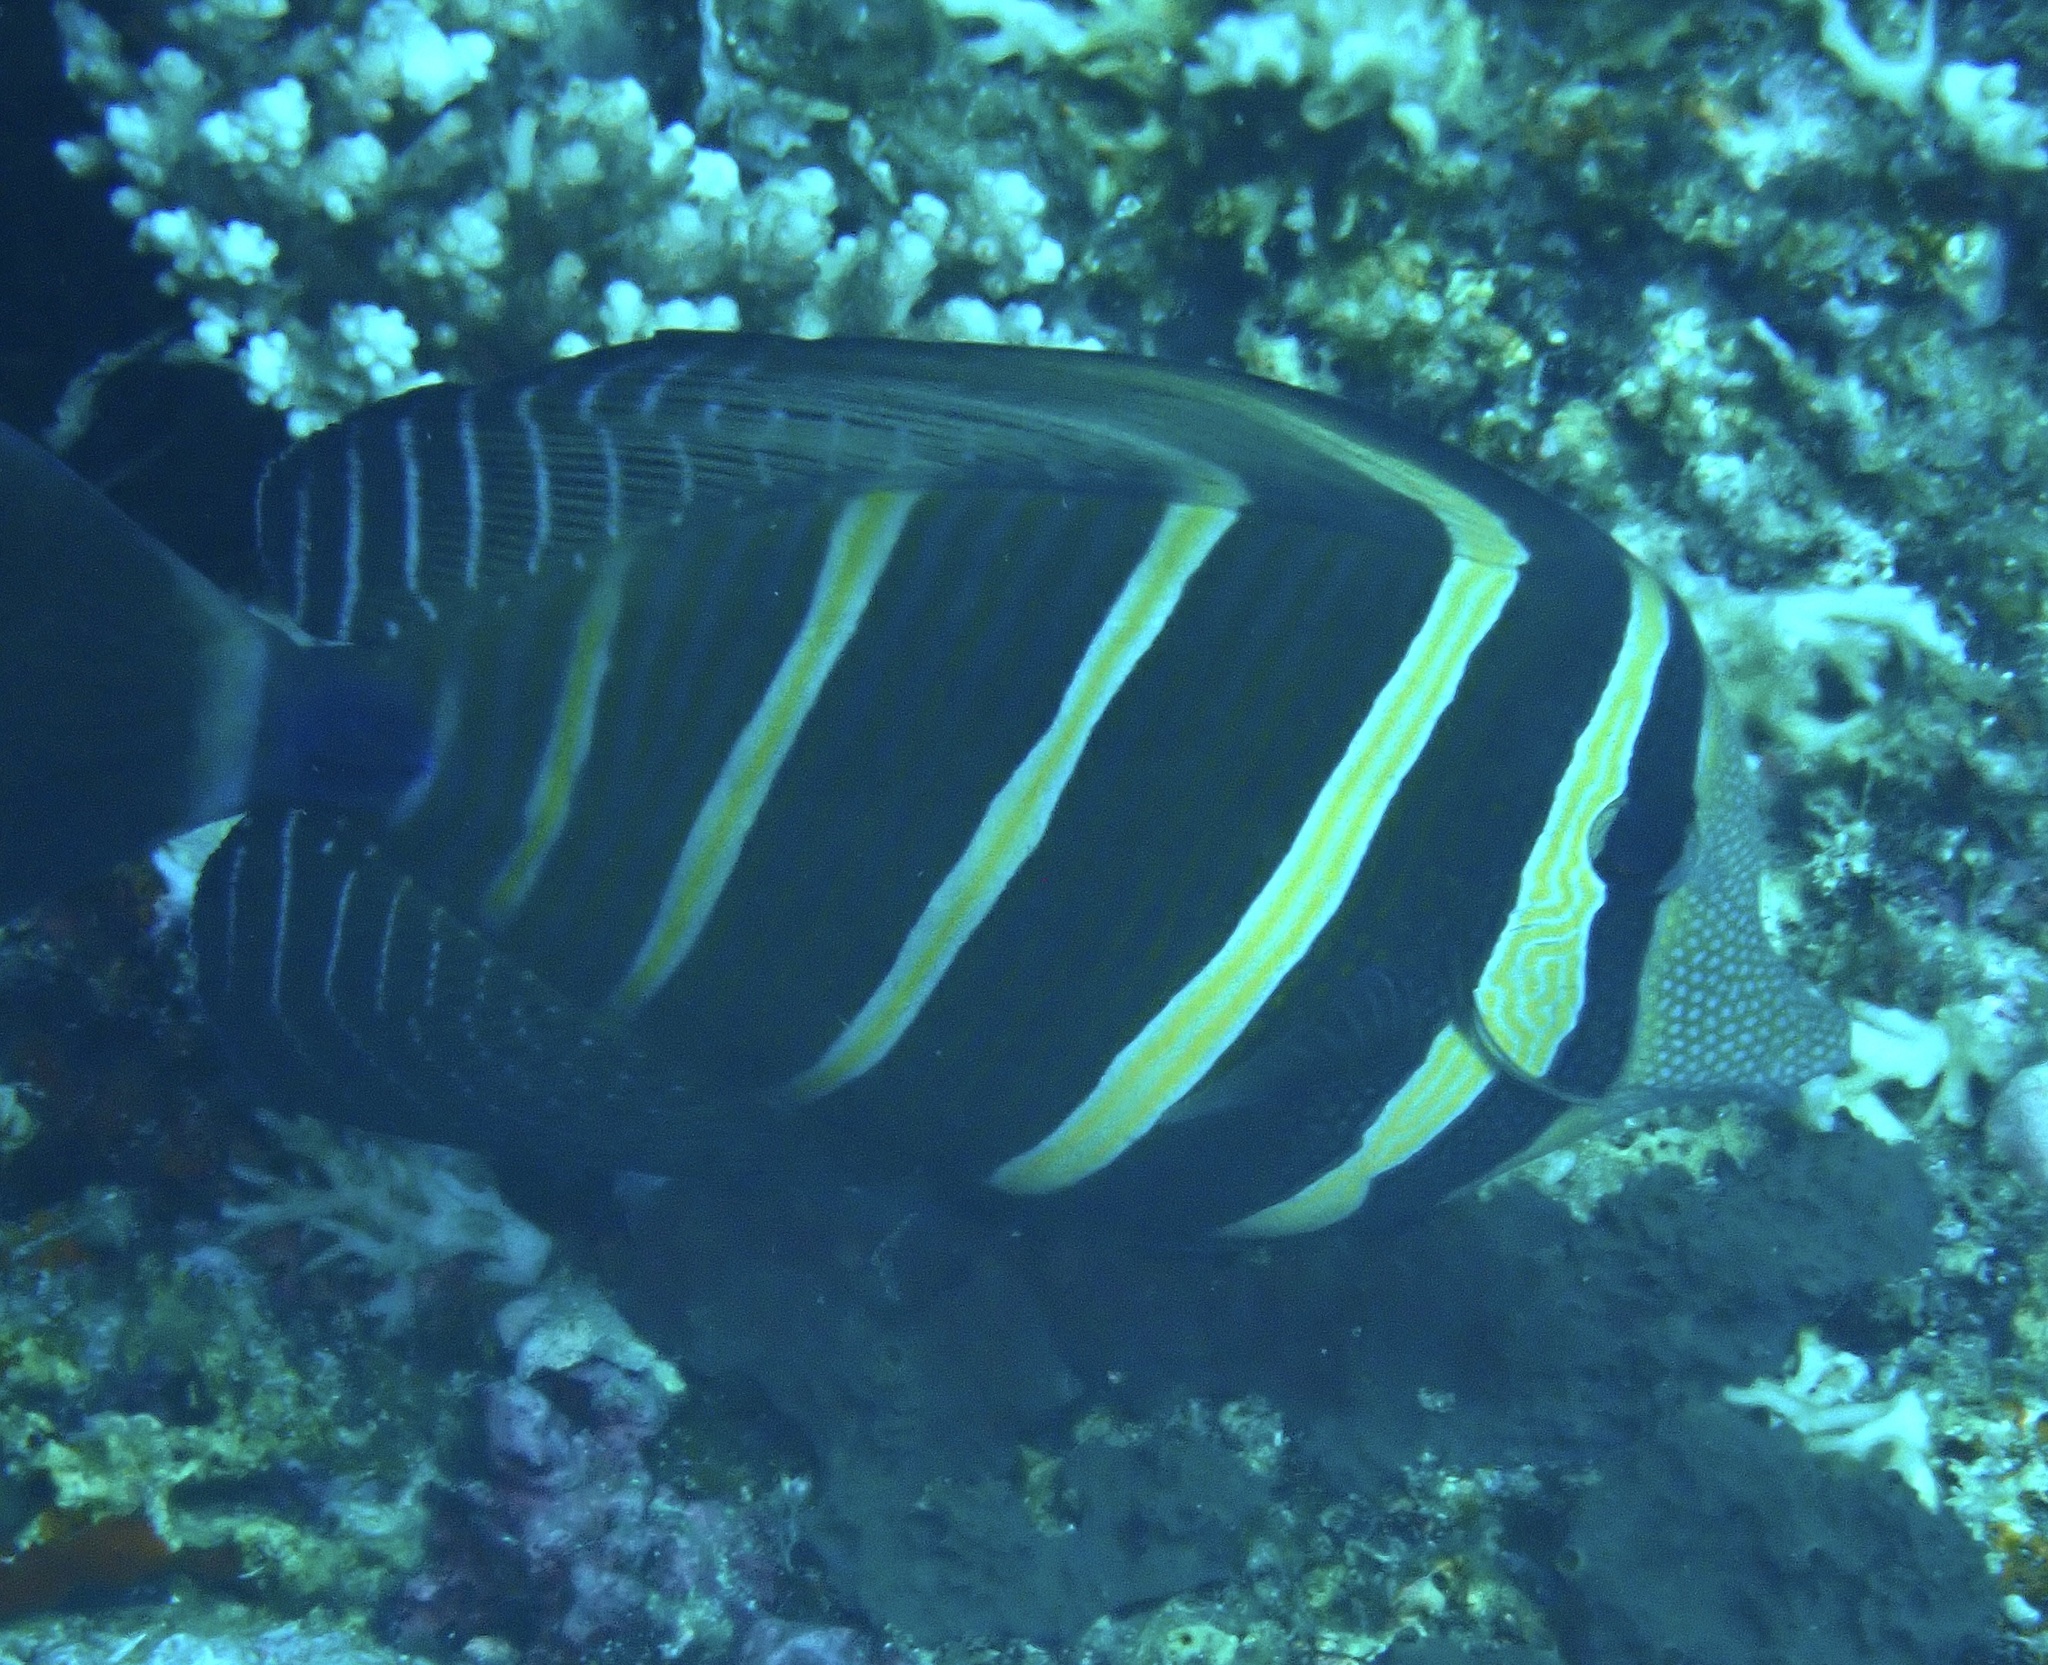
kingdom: Animalia
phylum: Chordata
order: Perciformes
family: Acanthuridae
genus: Zebrasoma
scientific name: Zebrasoma veliferum
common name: Sailfin surgeonfish
